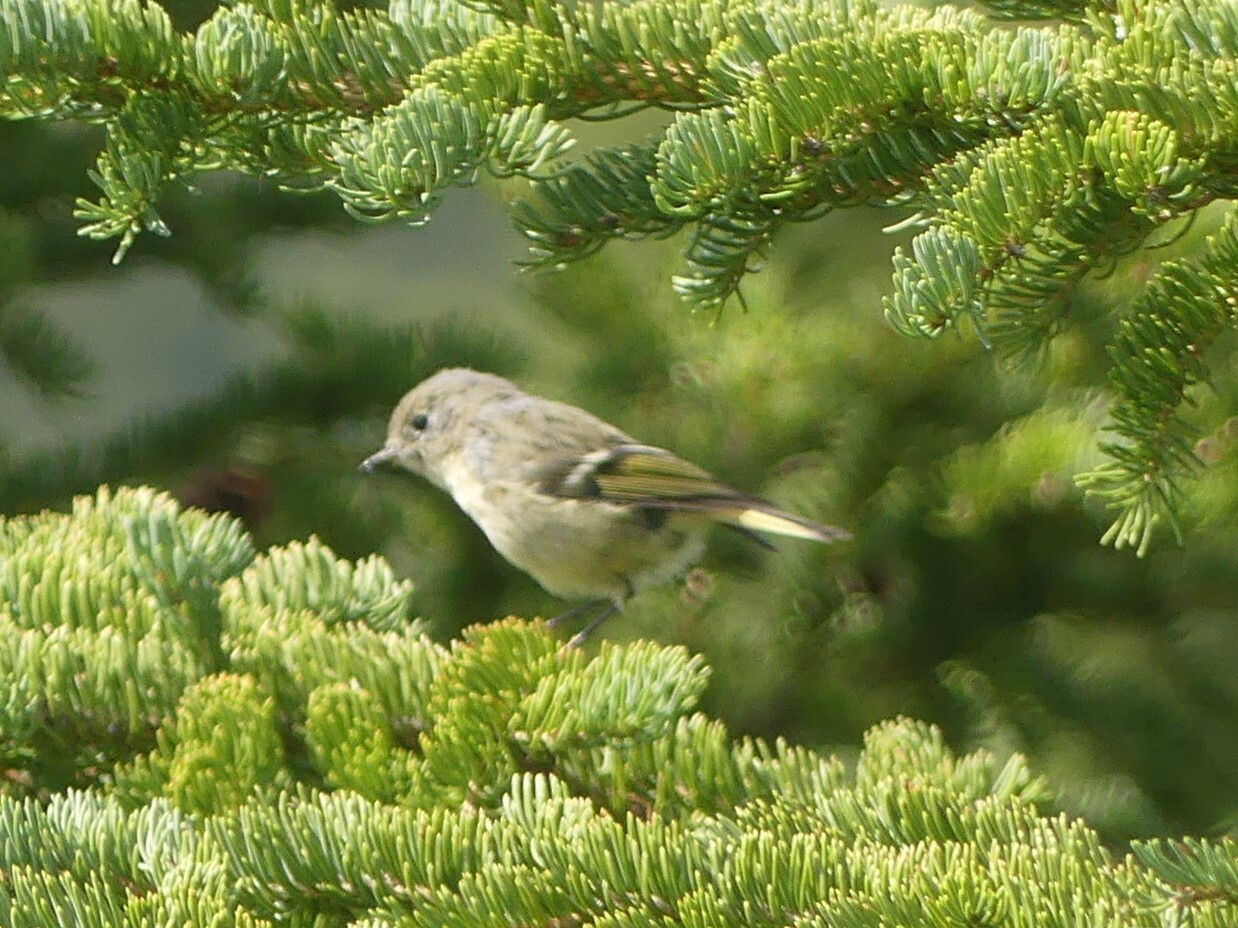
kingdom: Animalia
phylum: Chordata
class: Aves
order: Passeriformes
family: Regulidae
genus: Regulus
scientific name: Regulus calendula
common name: Ruby-crowned kinglet
